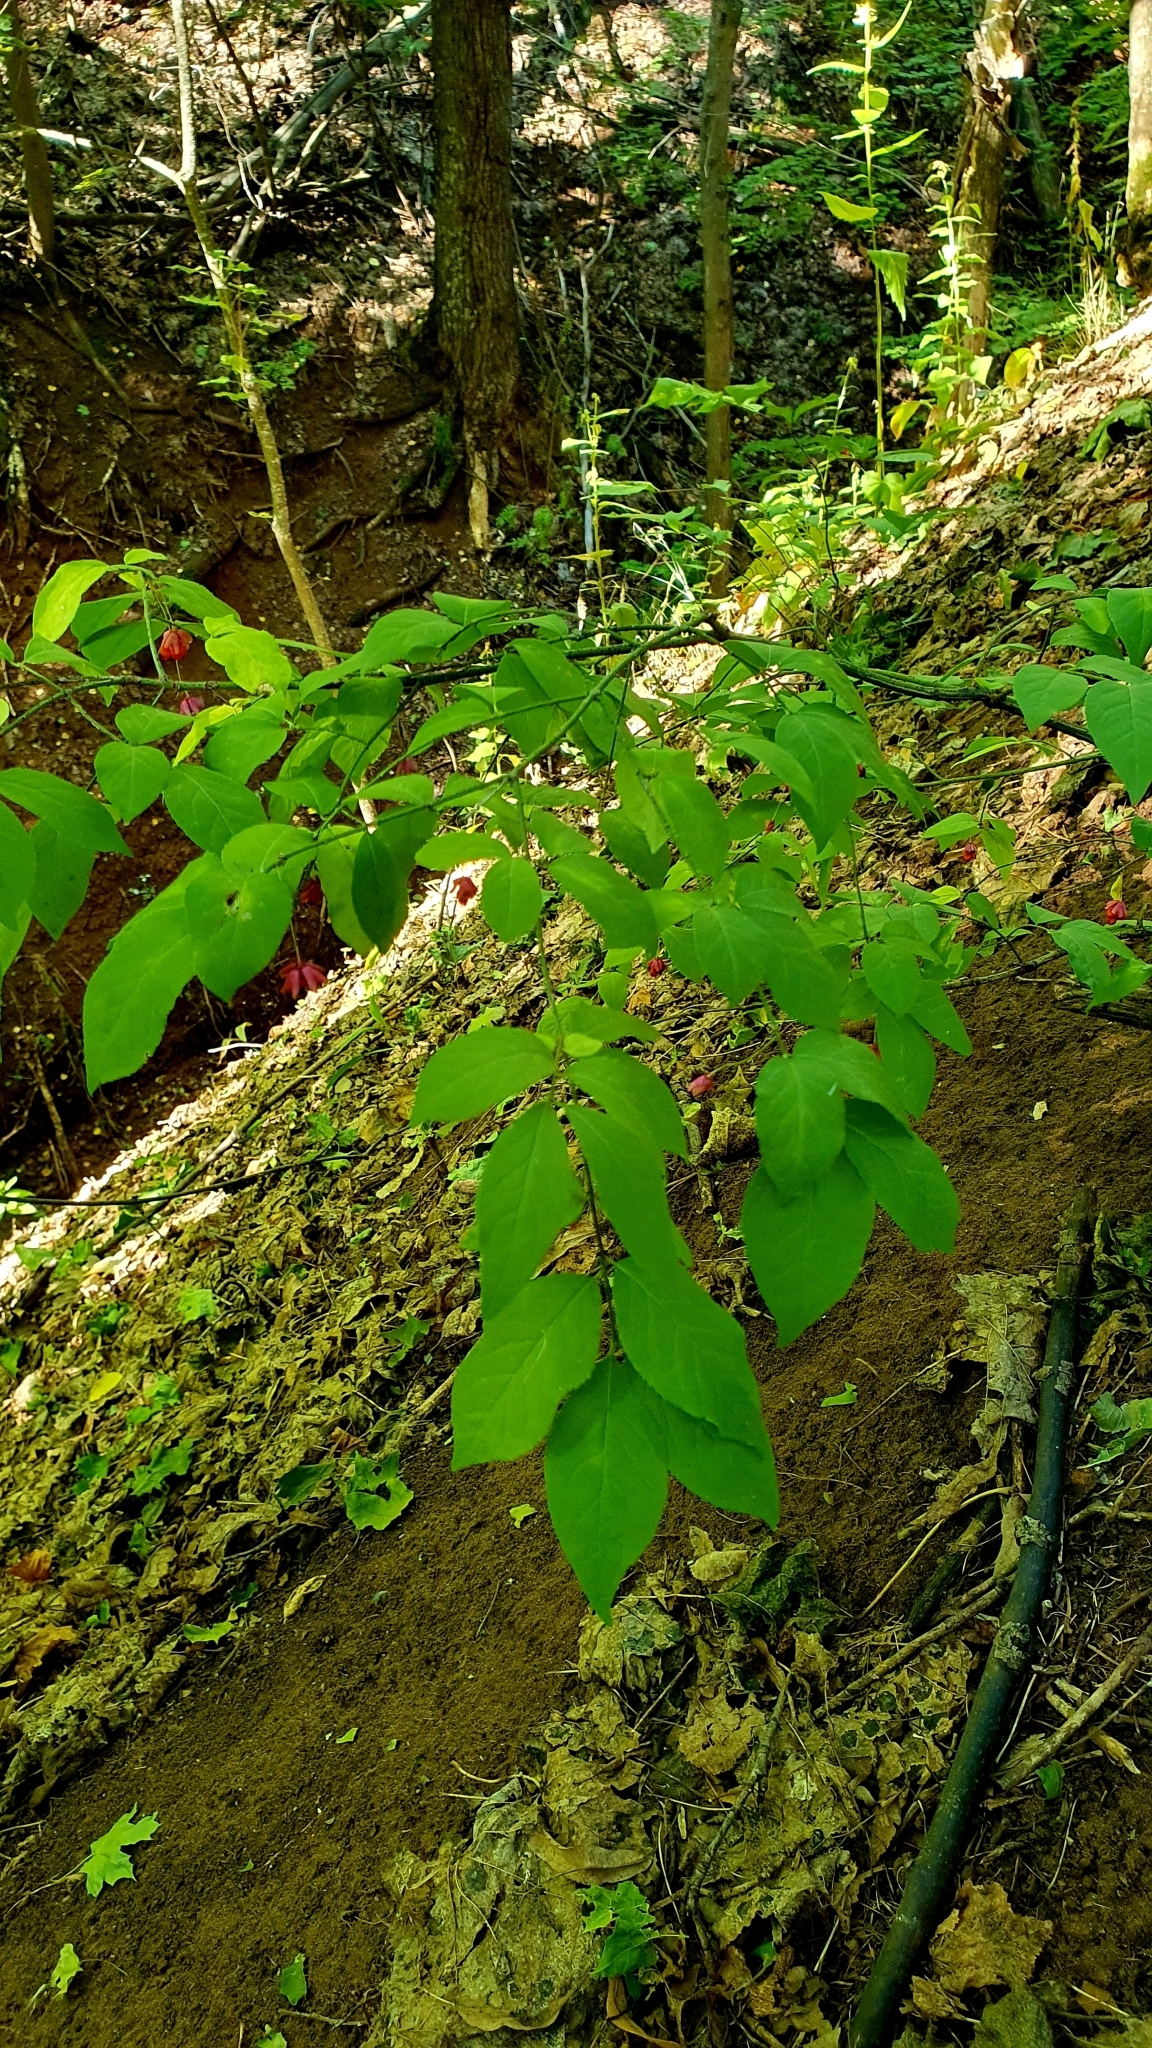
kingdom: Plantae
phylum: Tracheophyta
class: Magnoliopsida
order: Celastrales
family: Celastraceae
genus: Euonymus
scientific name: Euonymus verrucosus
